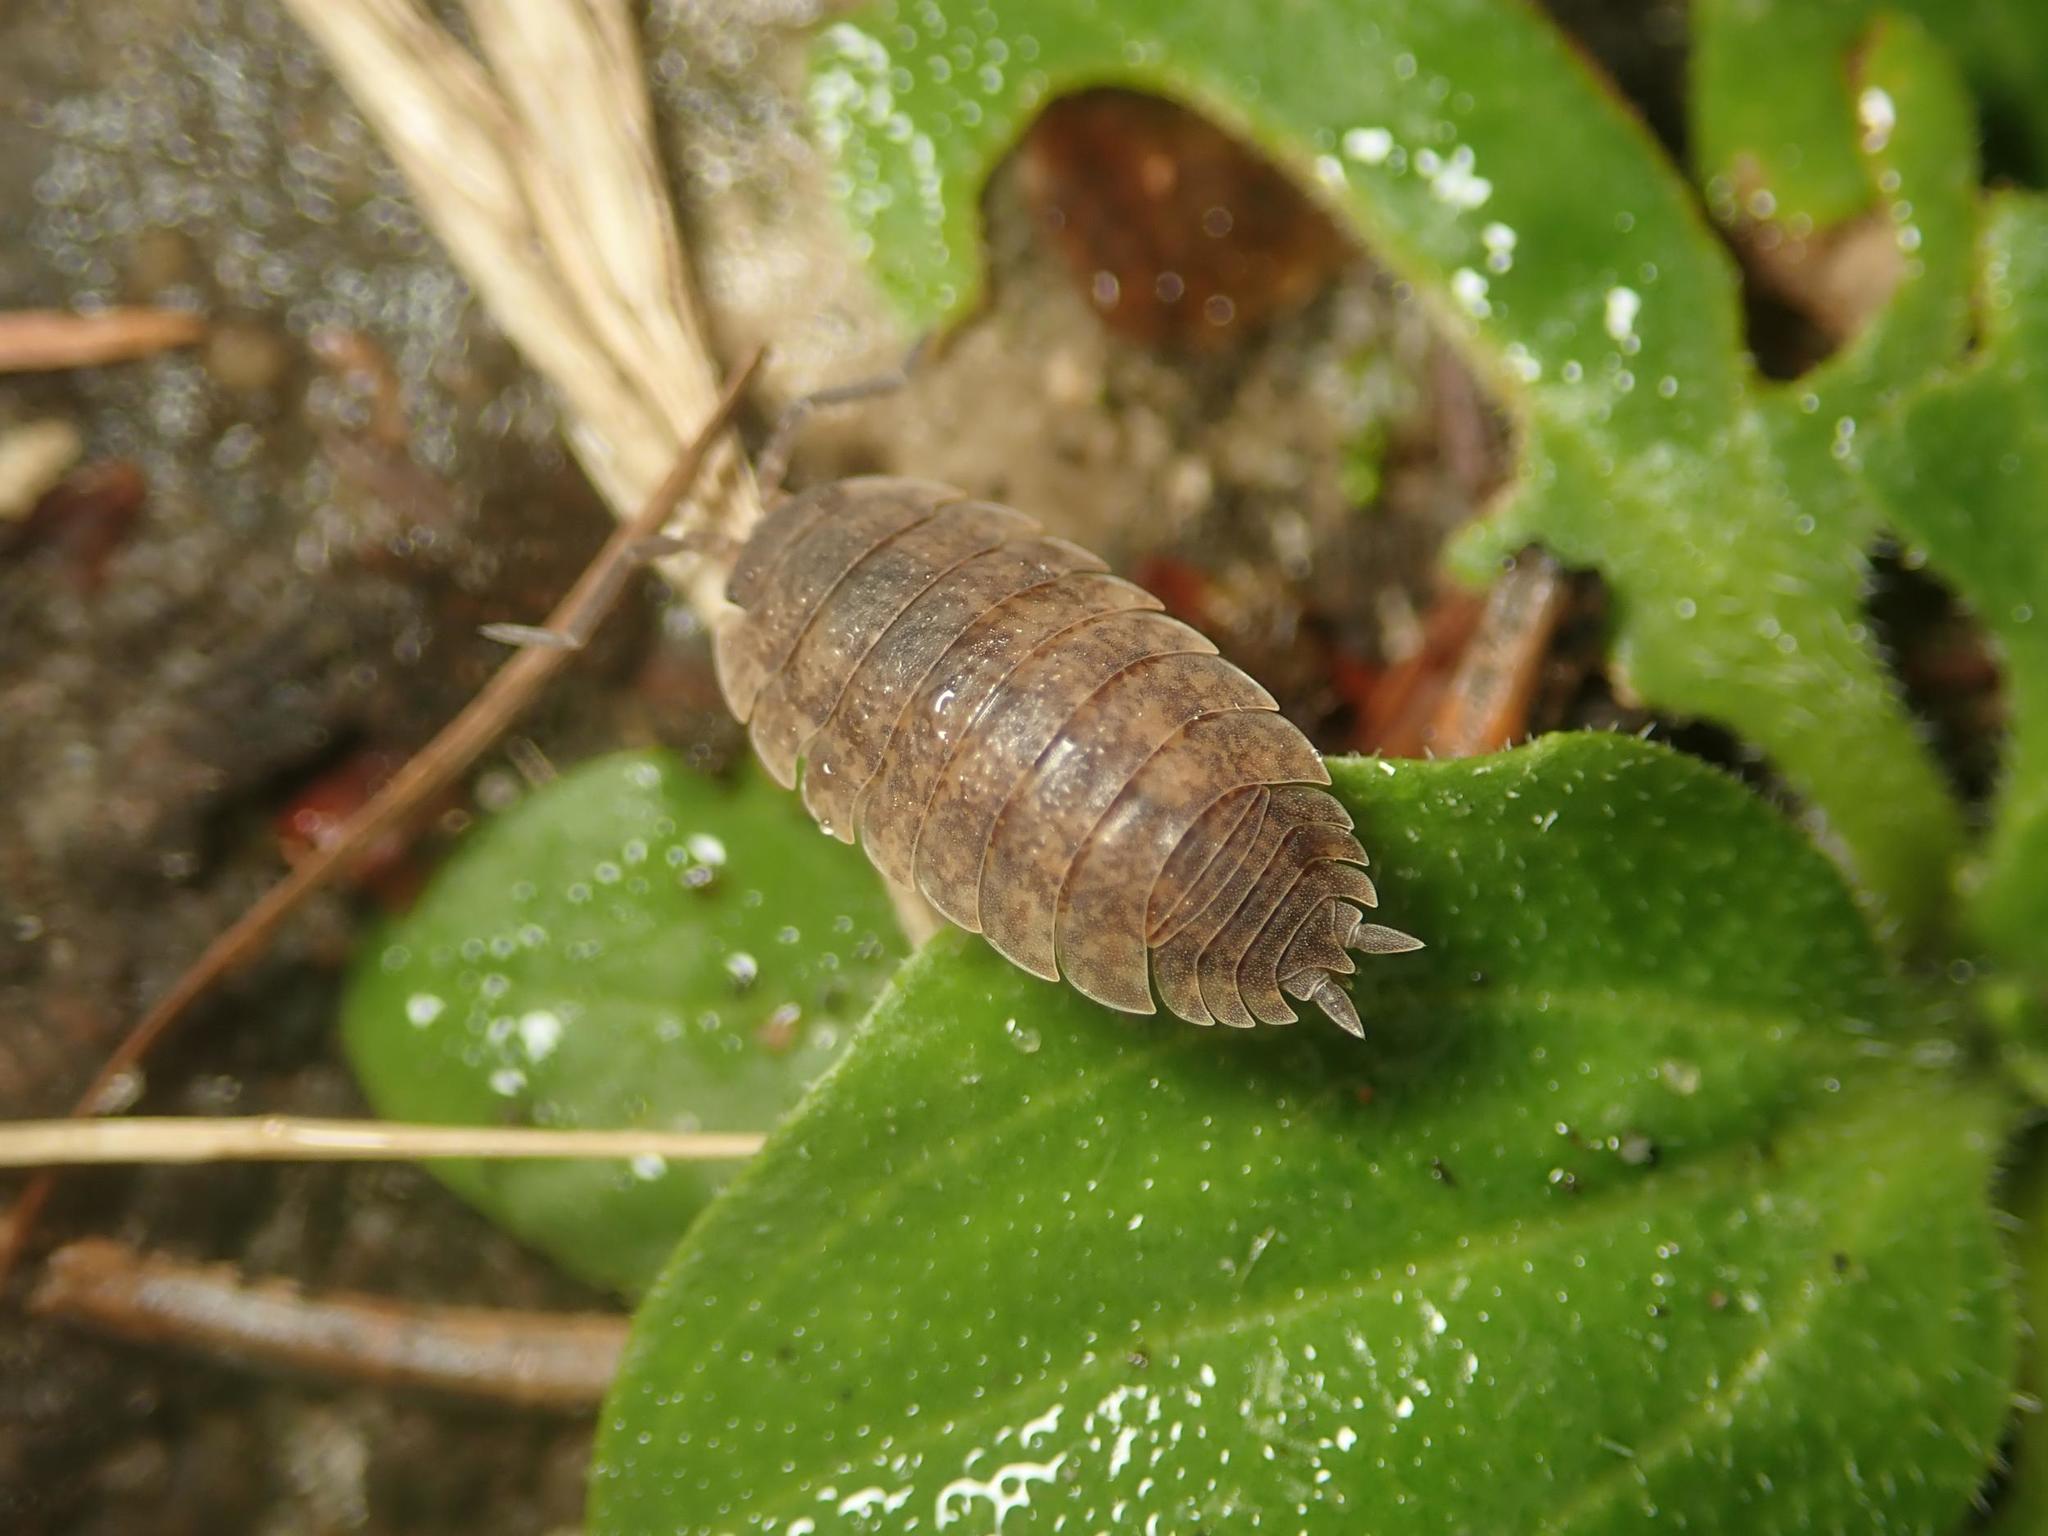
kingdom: Animalia
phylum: Arthropoda
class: Malacostraca
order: Isopoda
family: Porcellionidae
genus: Porcellio
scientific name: Porcellio scaber
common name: Common rough woodlouse
